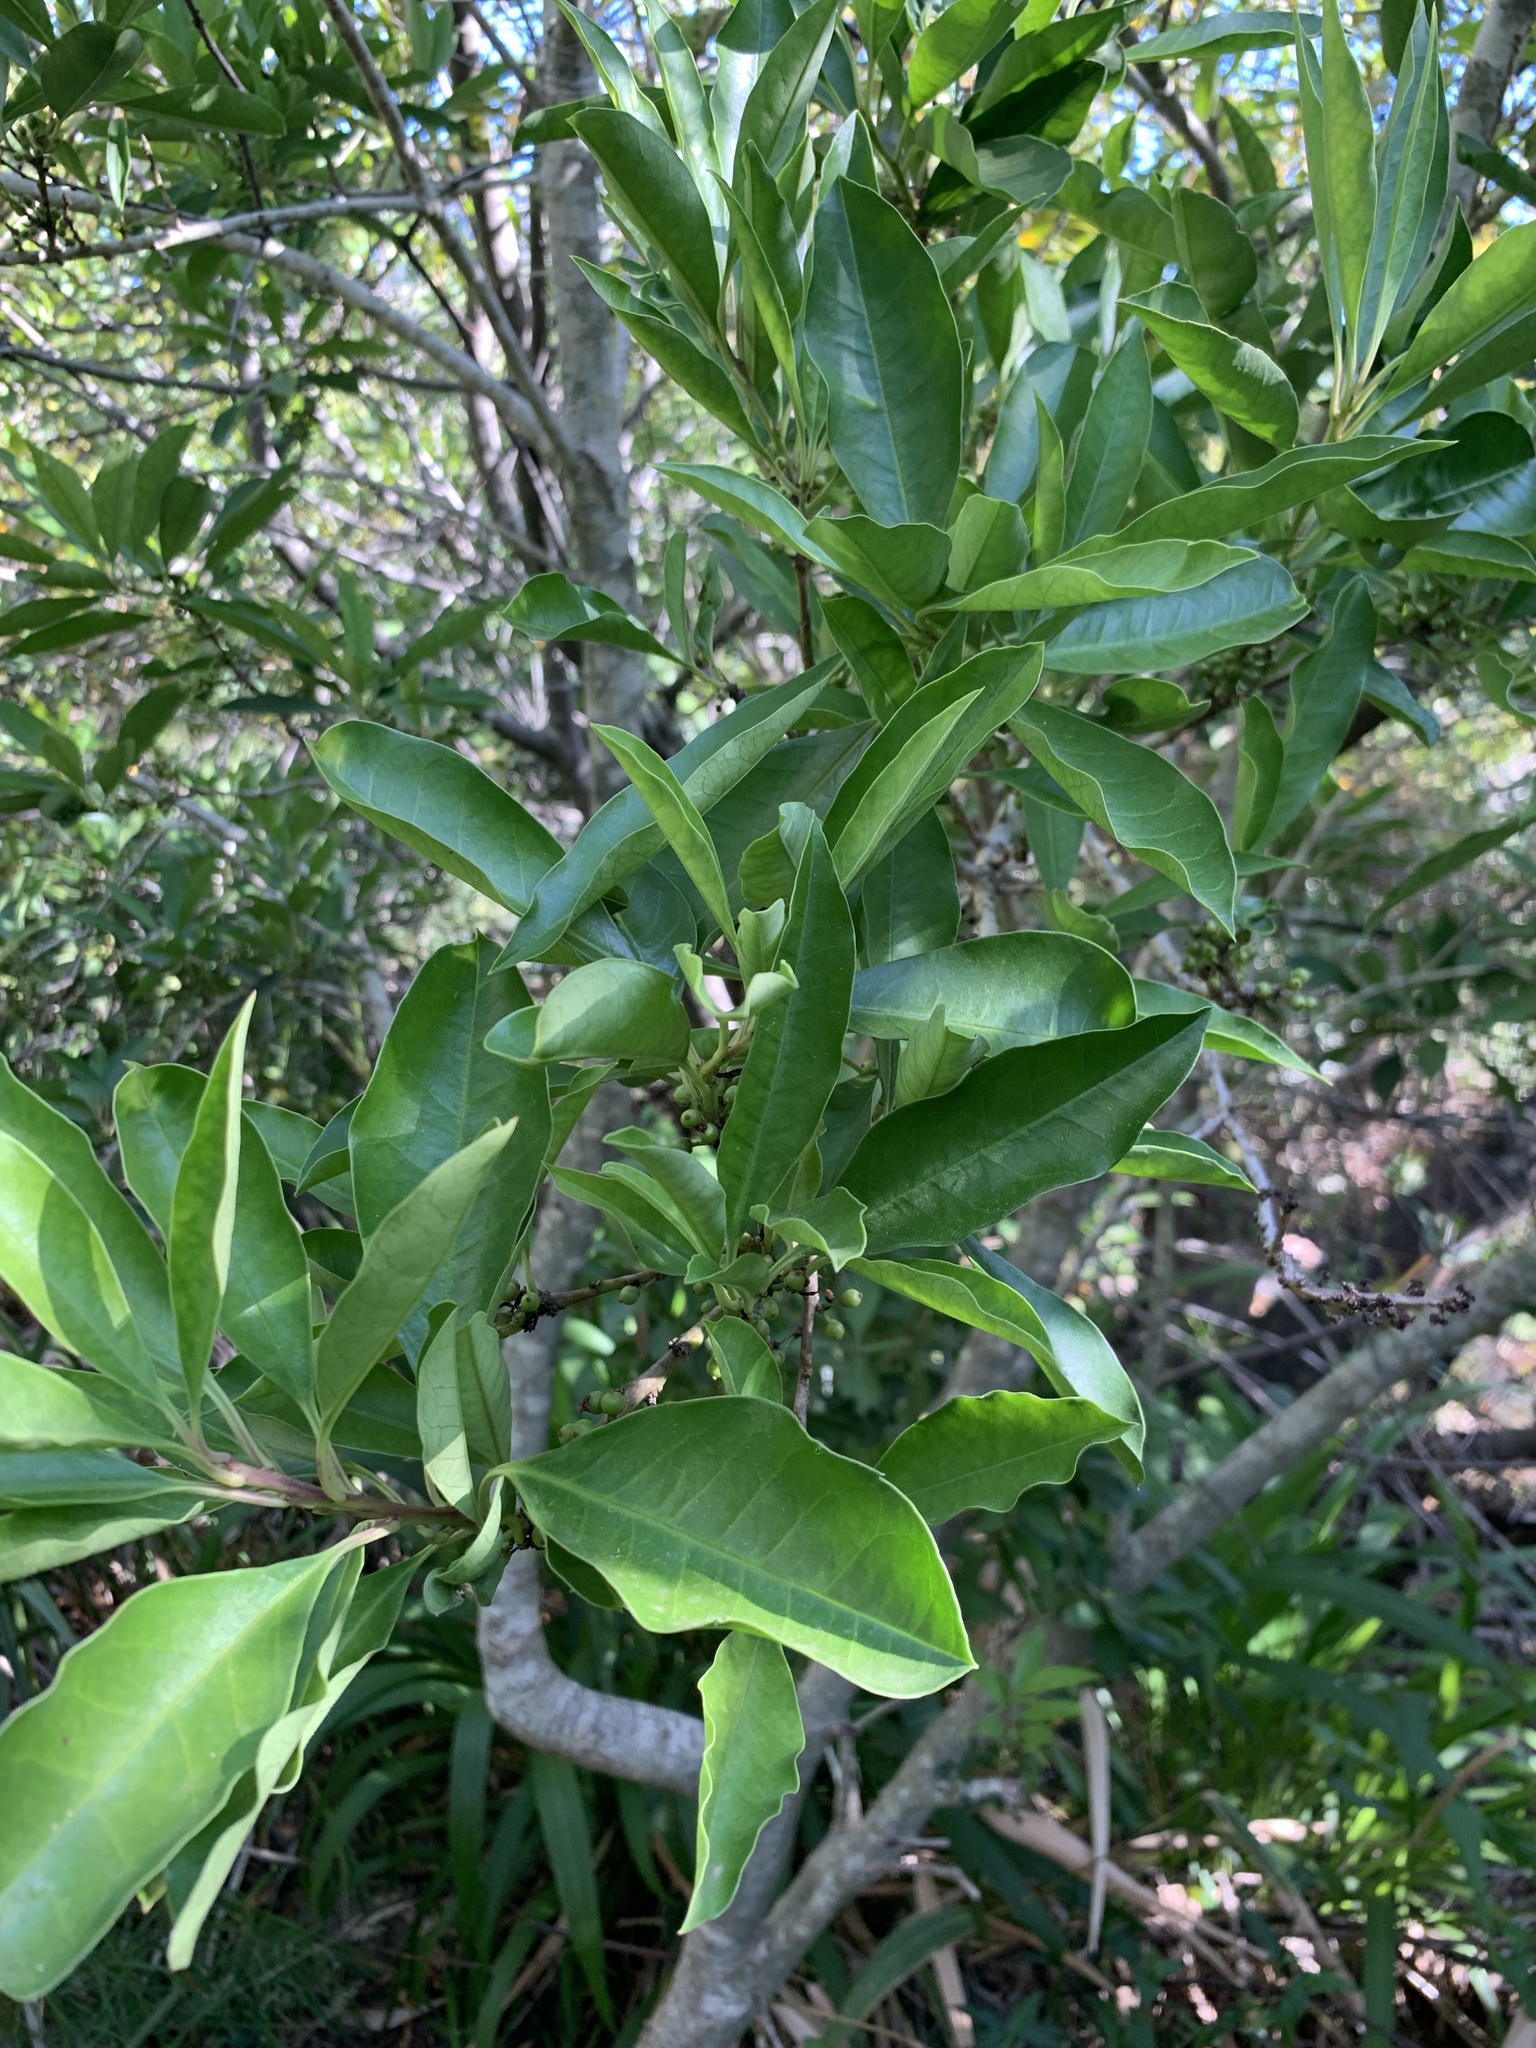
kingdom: Plantae
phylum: Tracheophyta
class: Magnoliopsida
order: Aquifoliales
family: Aquifoliaceae
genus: Ilex
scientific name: Ilex mitis
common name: African holly
